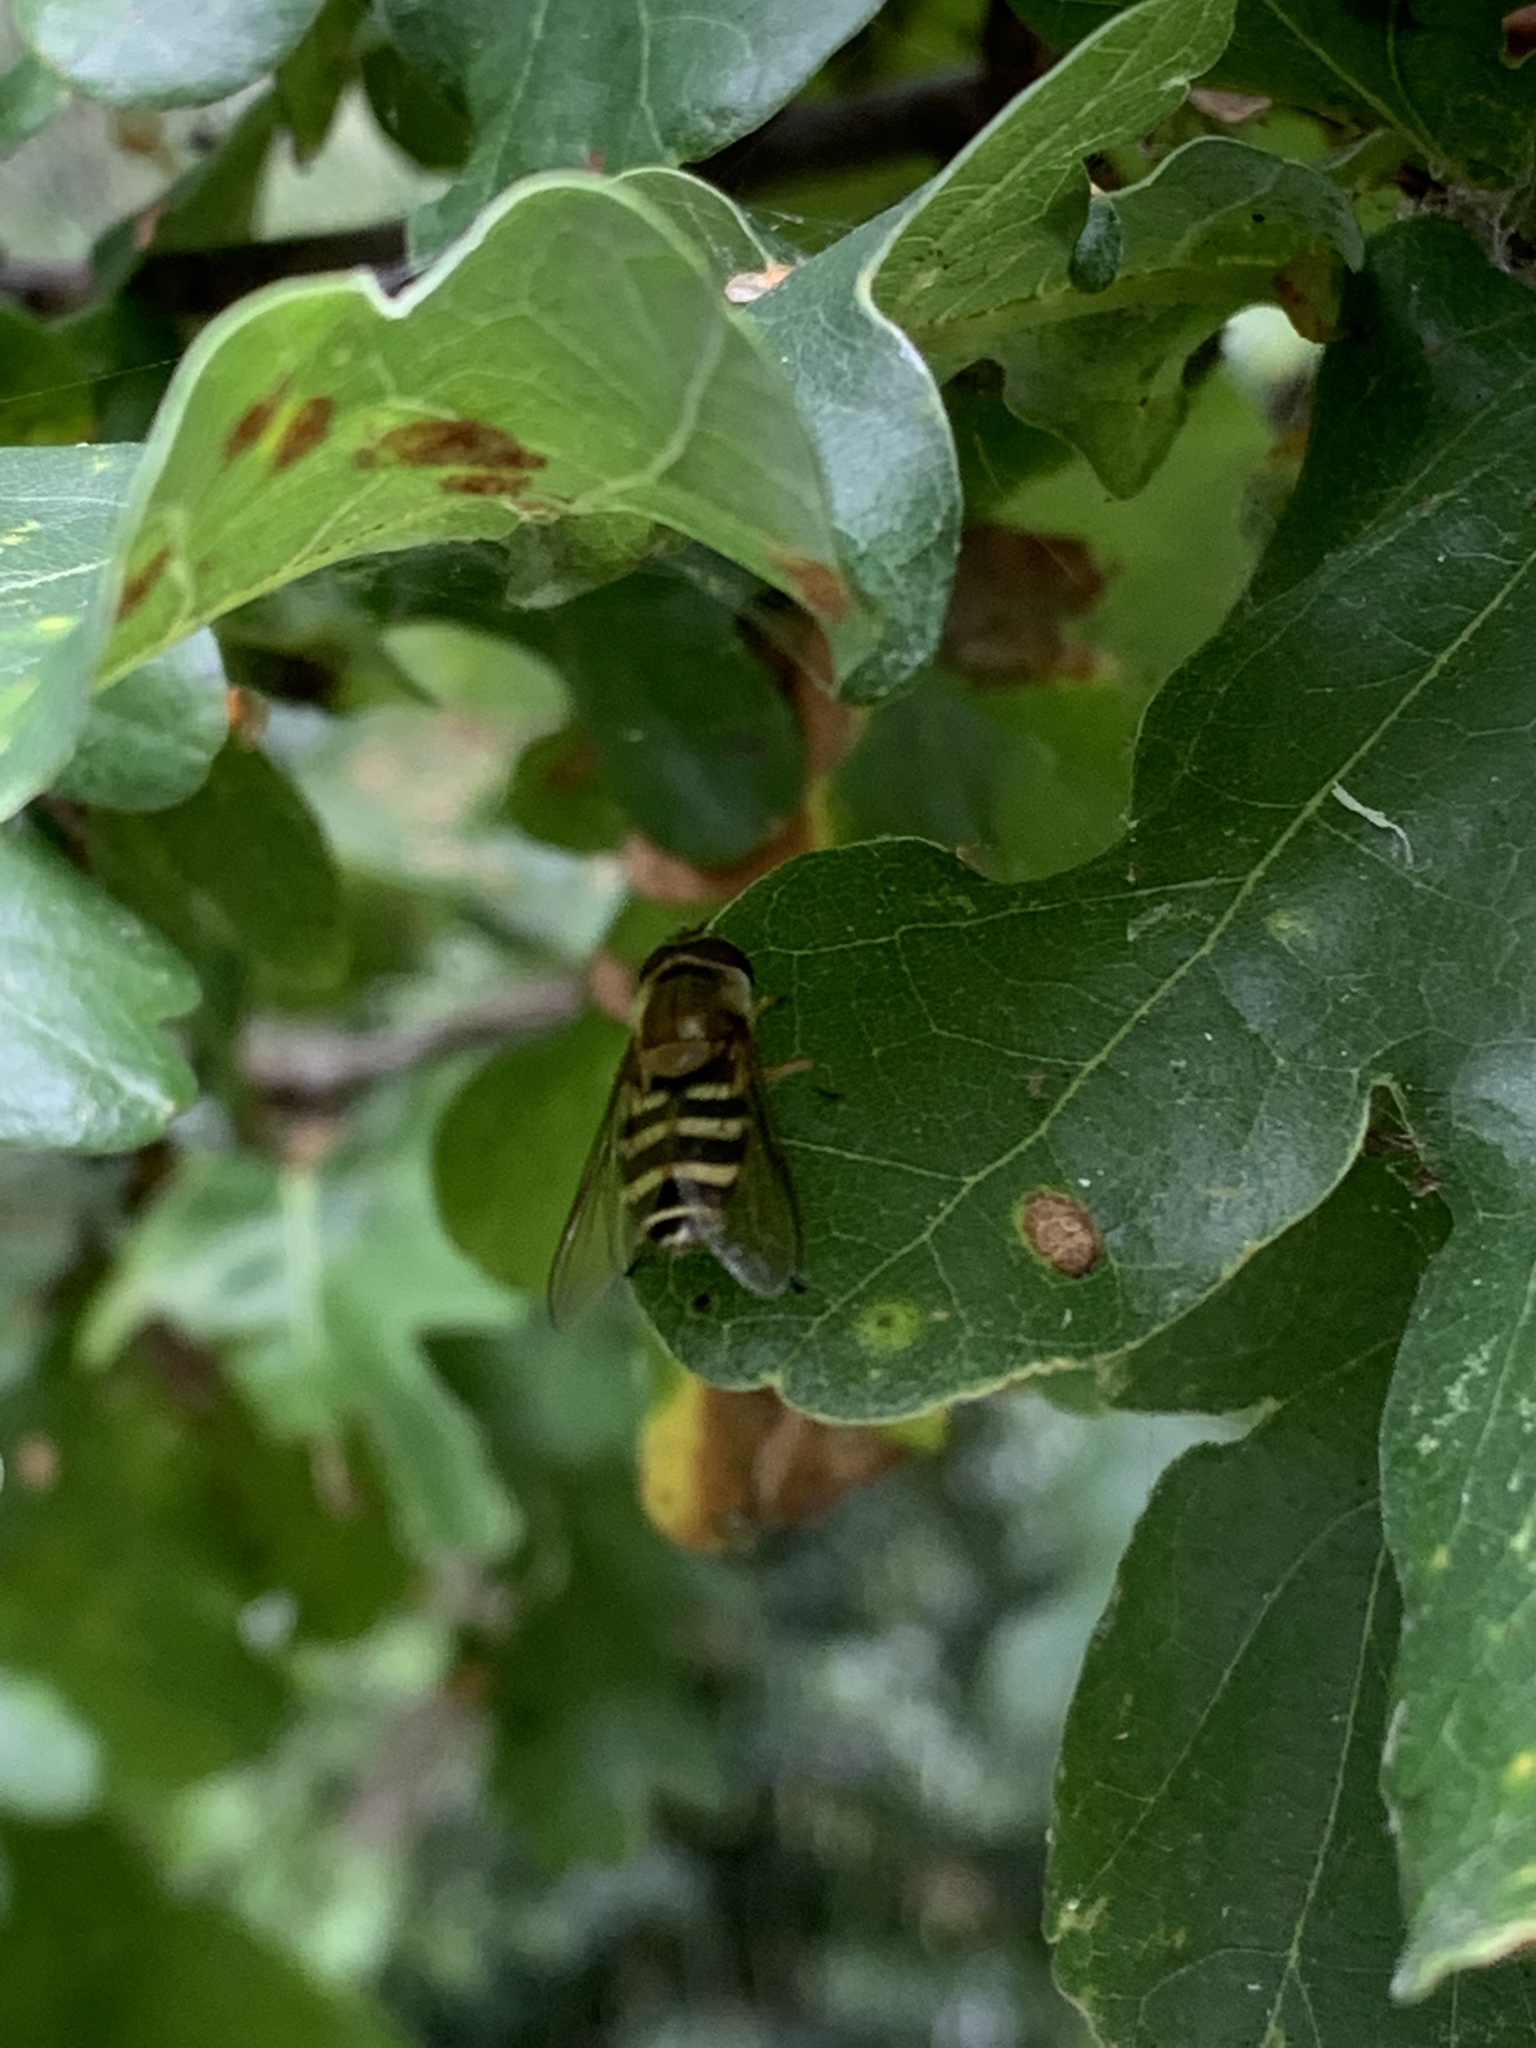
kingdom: Animalia
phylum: Arthropoda
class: Insecta
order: Diptera
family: Syrphidae
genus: Syrphus
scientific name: Syrphus
